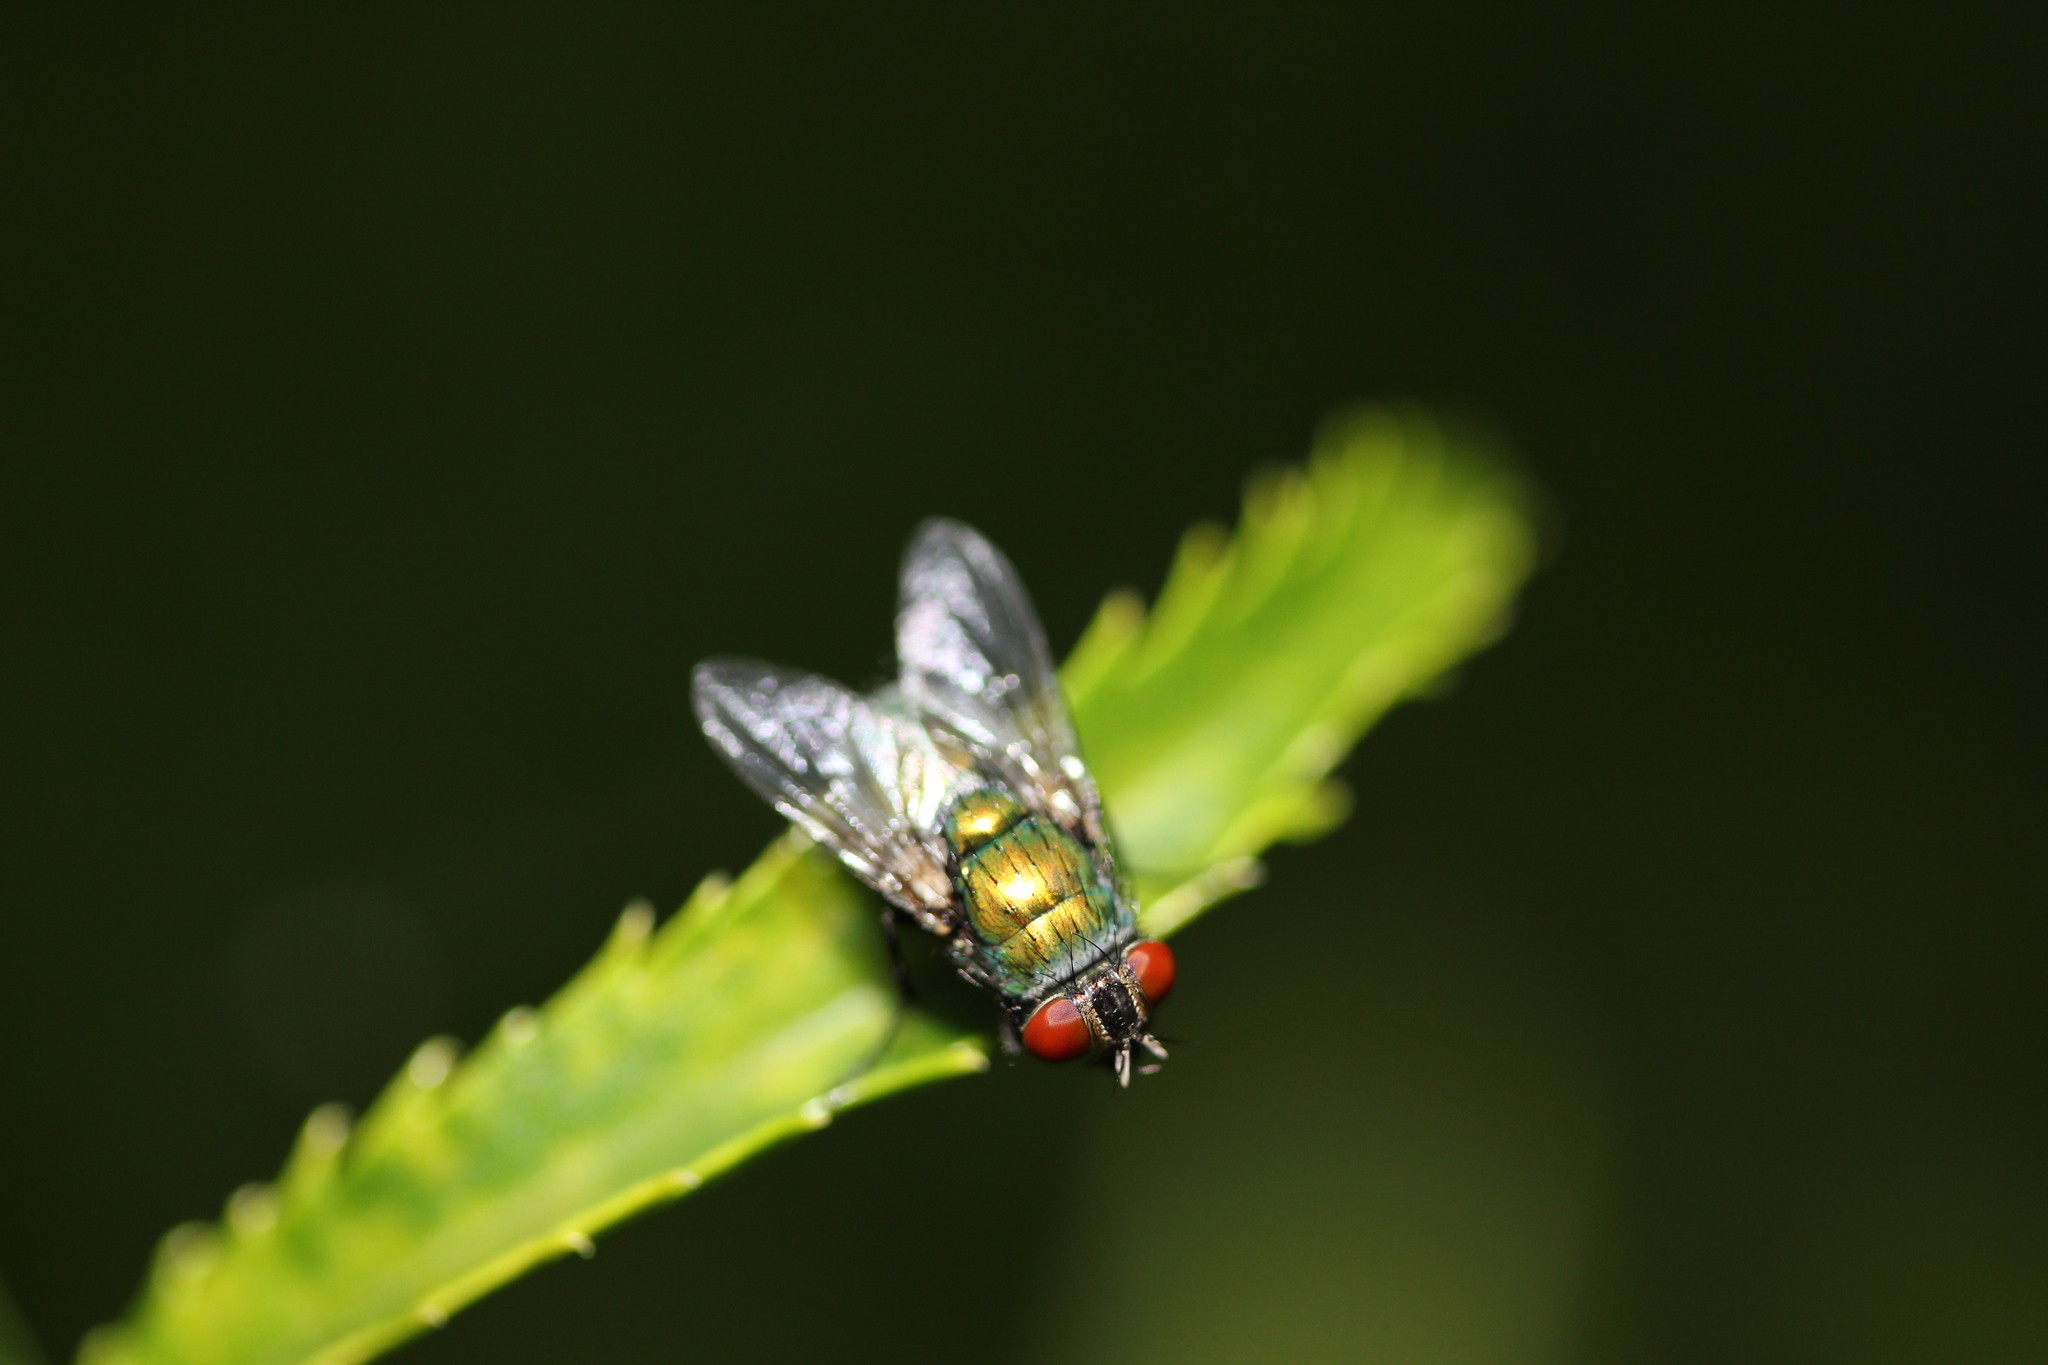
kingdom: Animalia
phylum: Arthropoda
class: Insecta
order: Diptera
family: Calliphoridae
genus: Lucilia
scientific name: Lucilia sericata
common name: Blow fly
